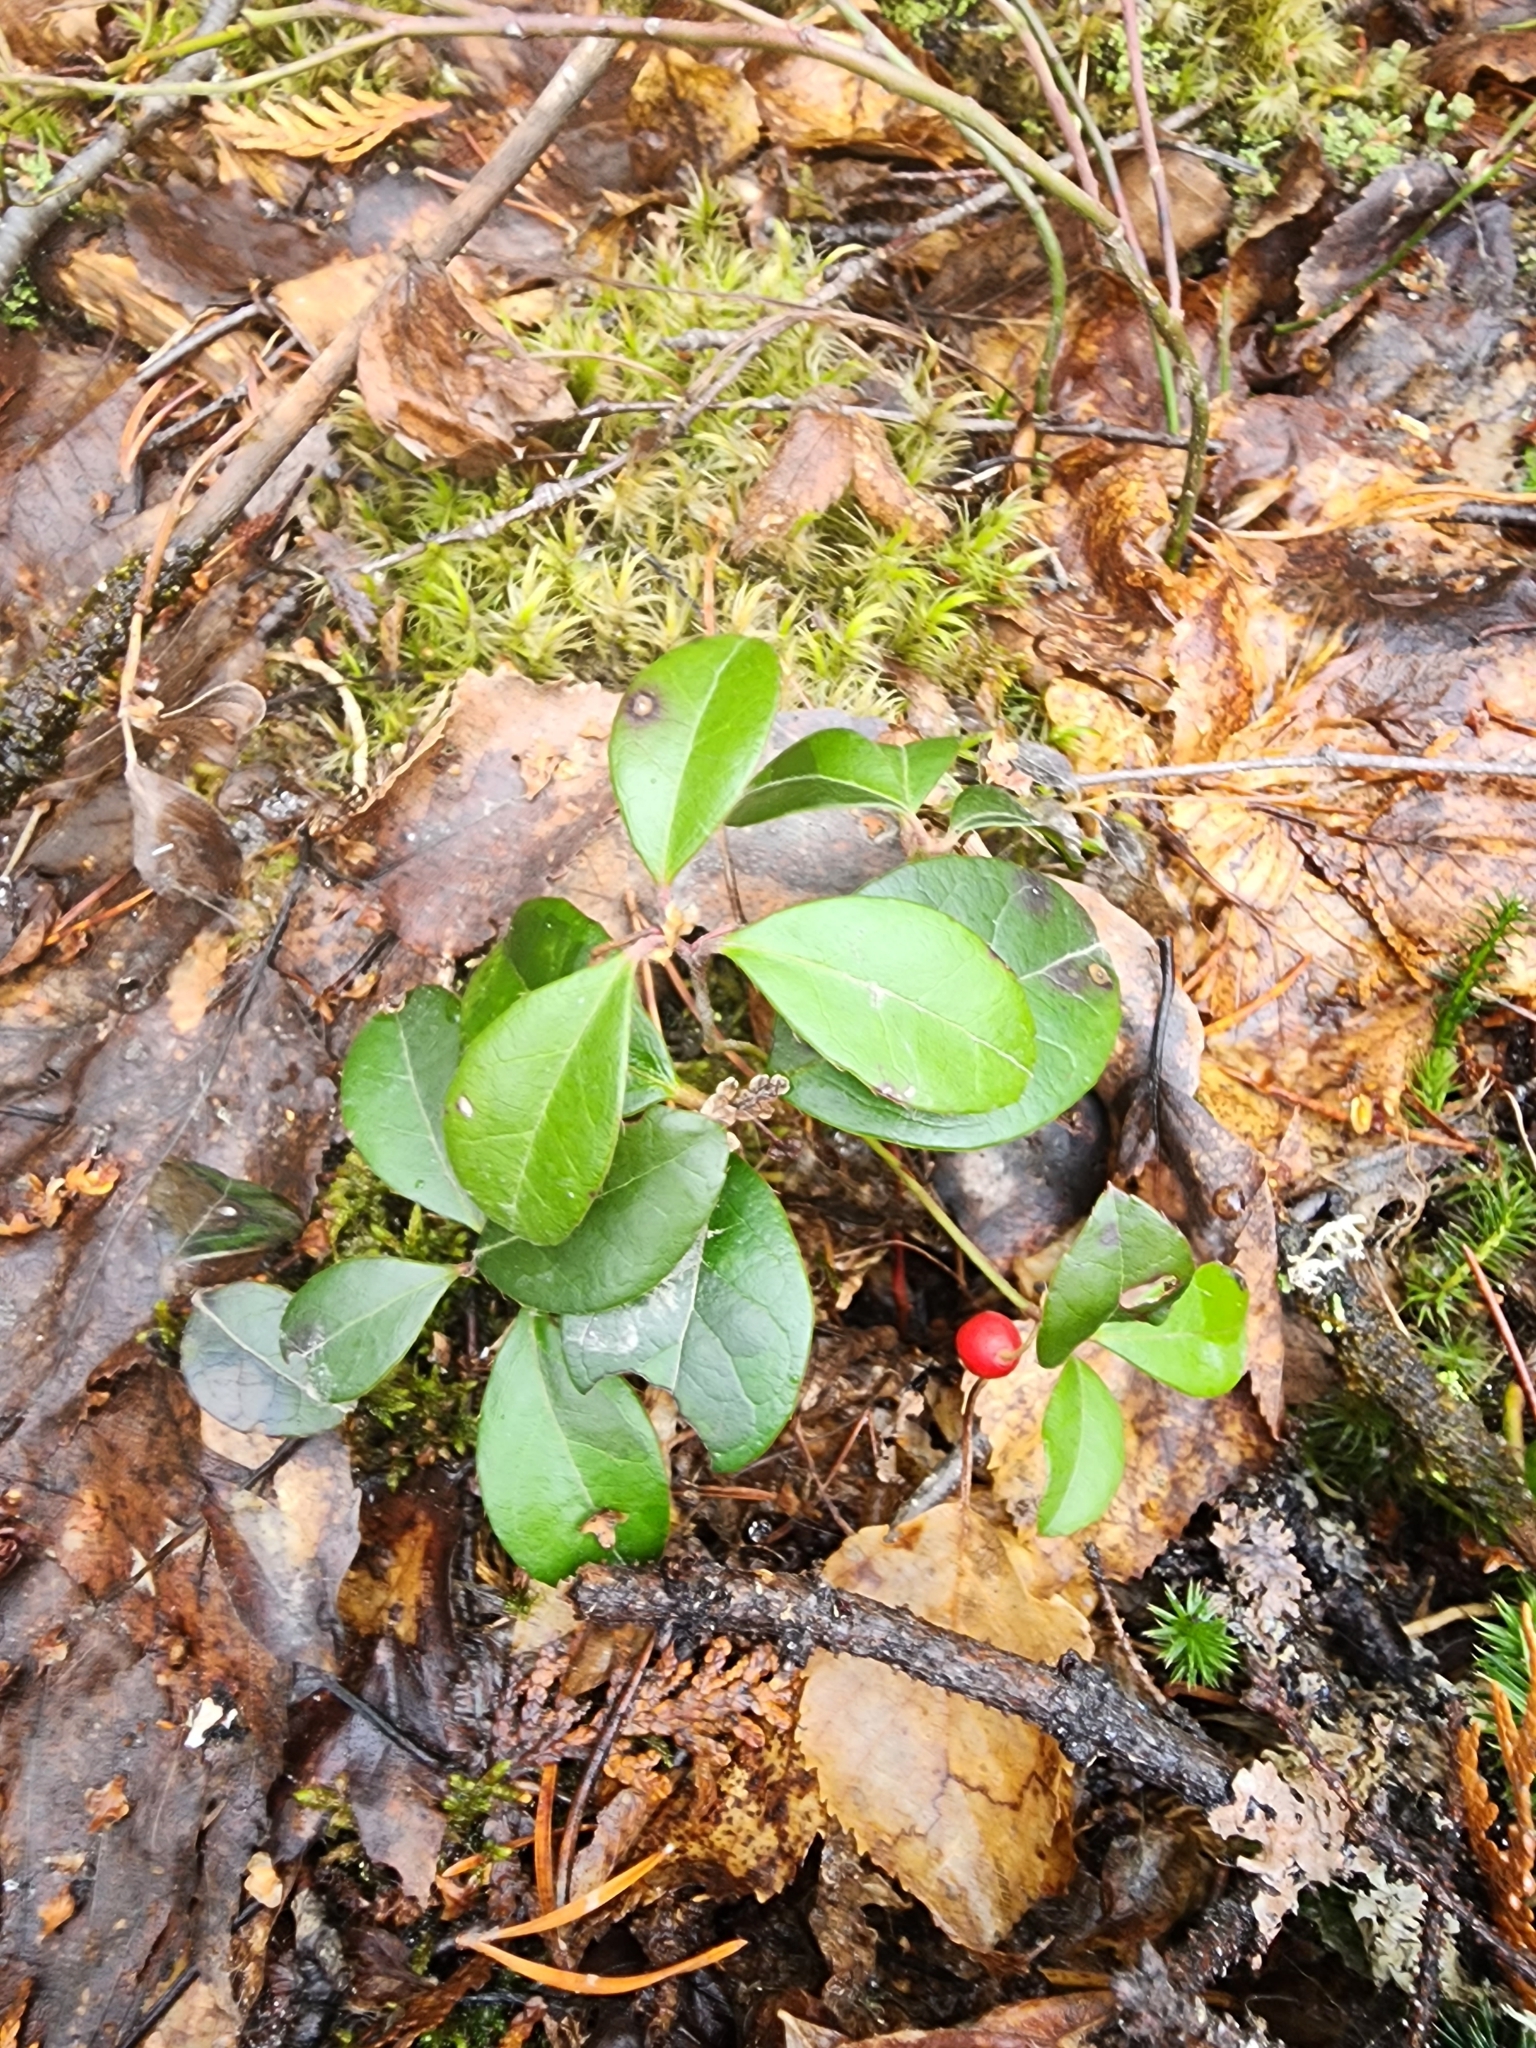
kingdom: Plantae
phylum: Tracheophyta
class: Magnoliopsida
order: Ericales
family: Ericaceae
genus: Gaultheria
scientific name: Gaultheria procumbens
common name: Checkerberry
